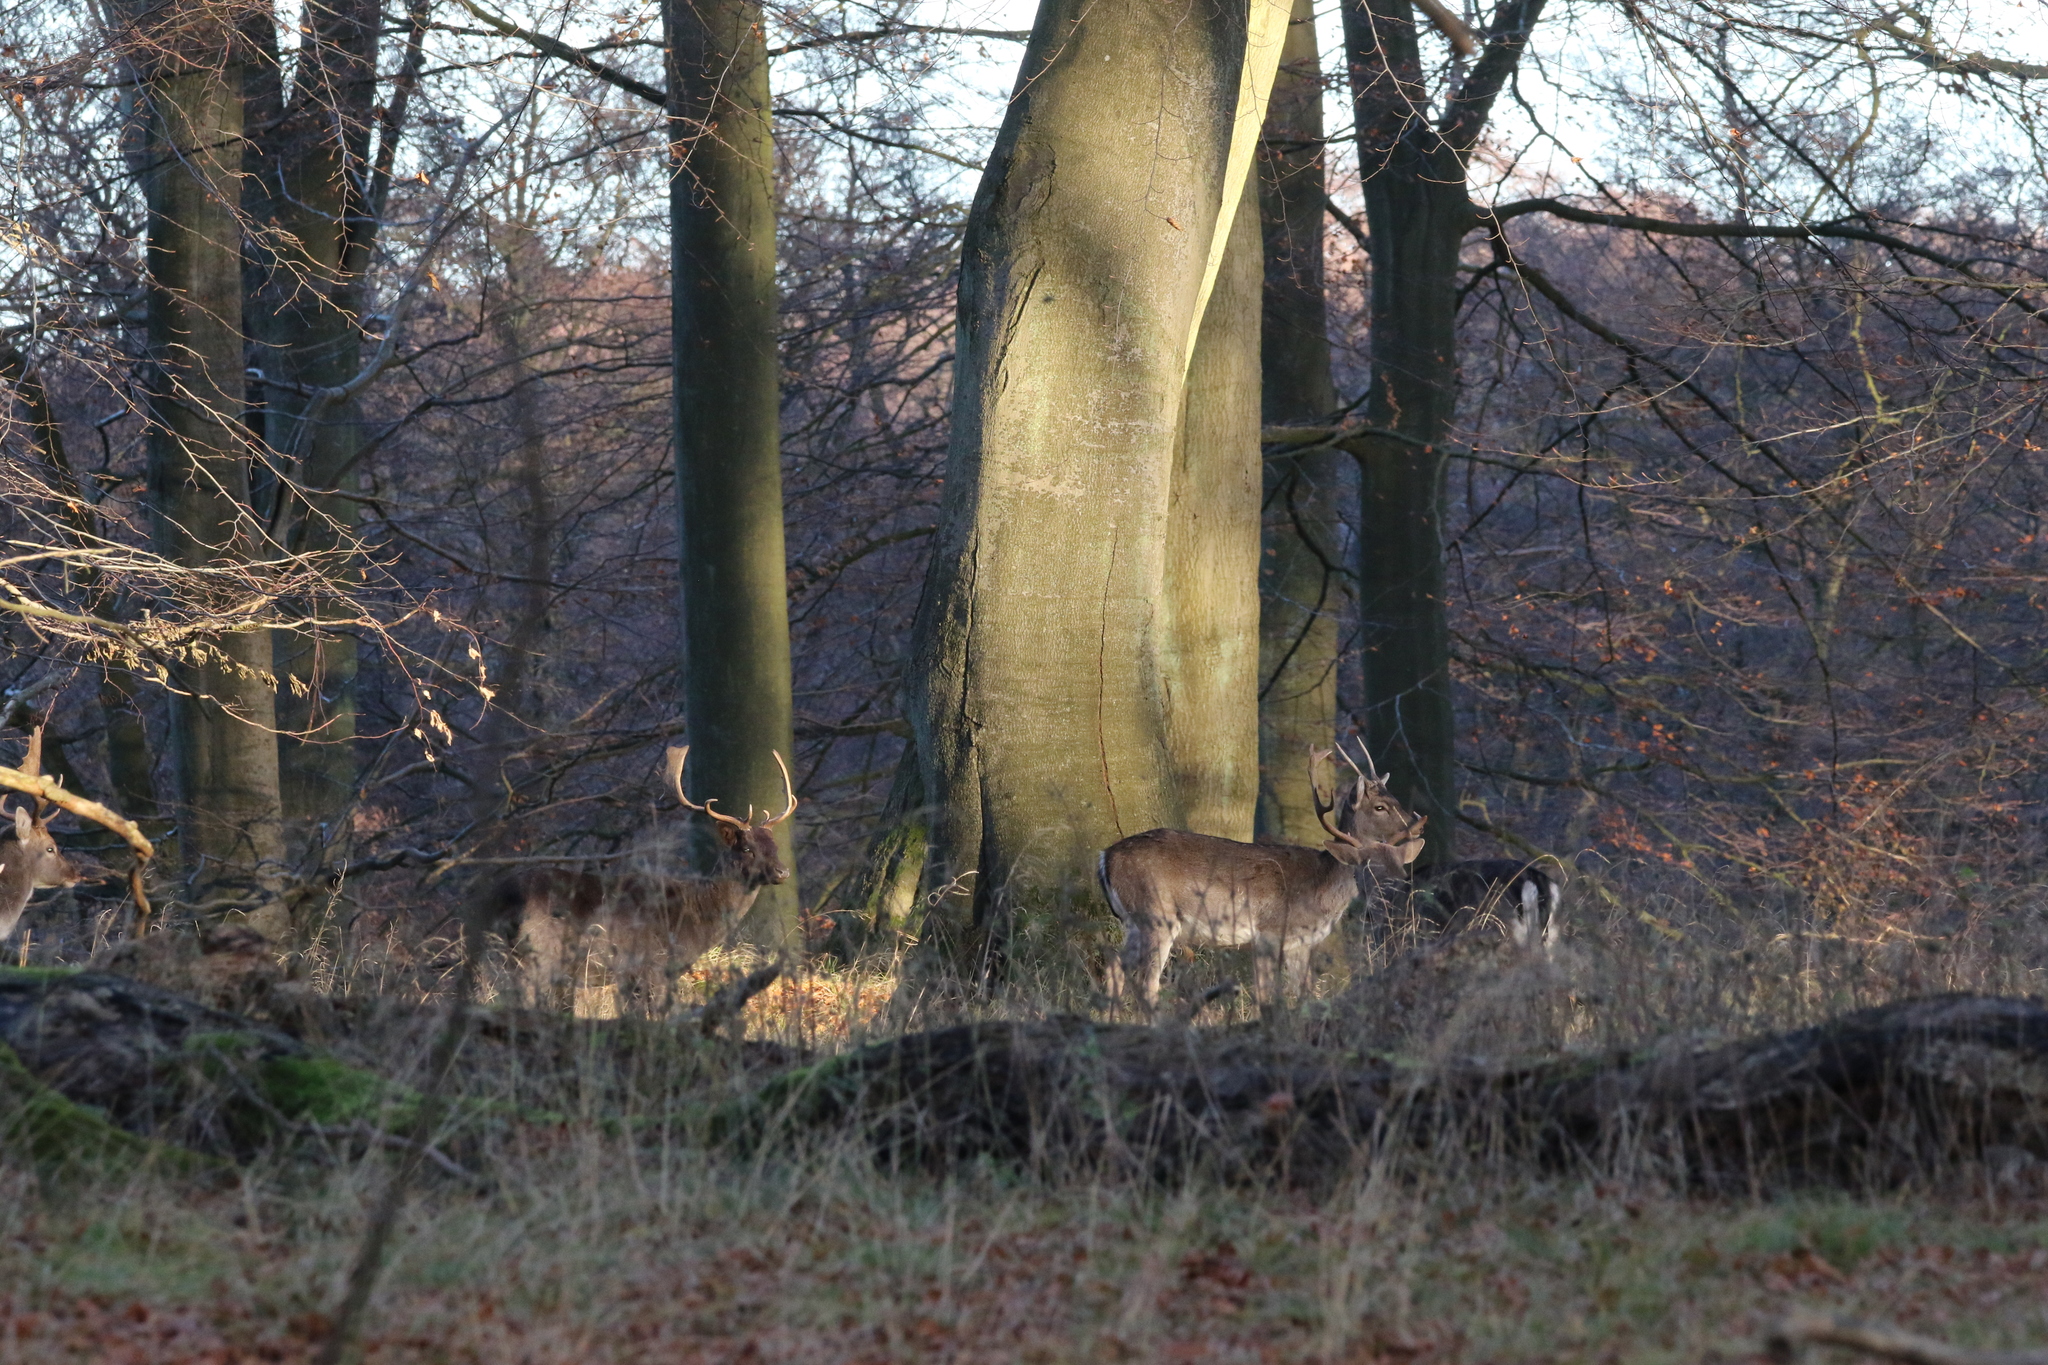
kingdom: Animalia
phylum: Chordata
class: Mammalia
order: Artiodactyla
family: Cervidae
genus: Dama
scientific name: Dama dama
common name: Fallow deer
